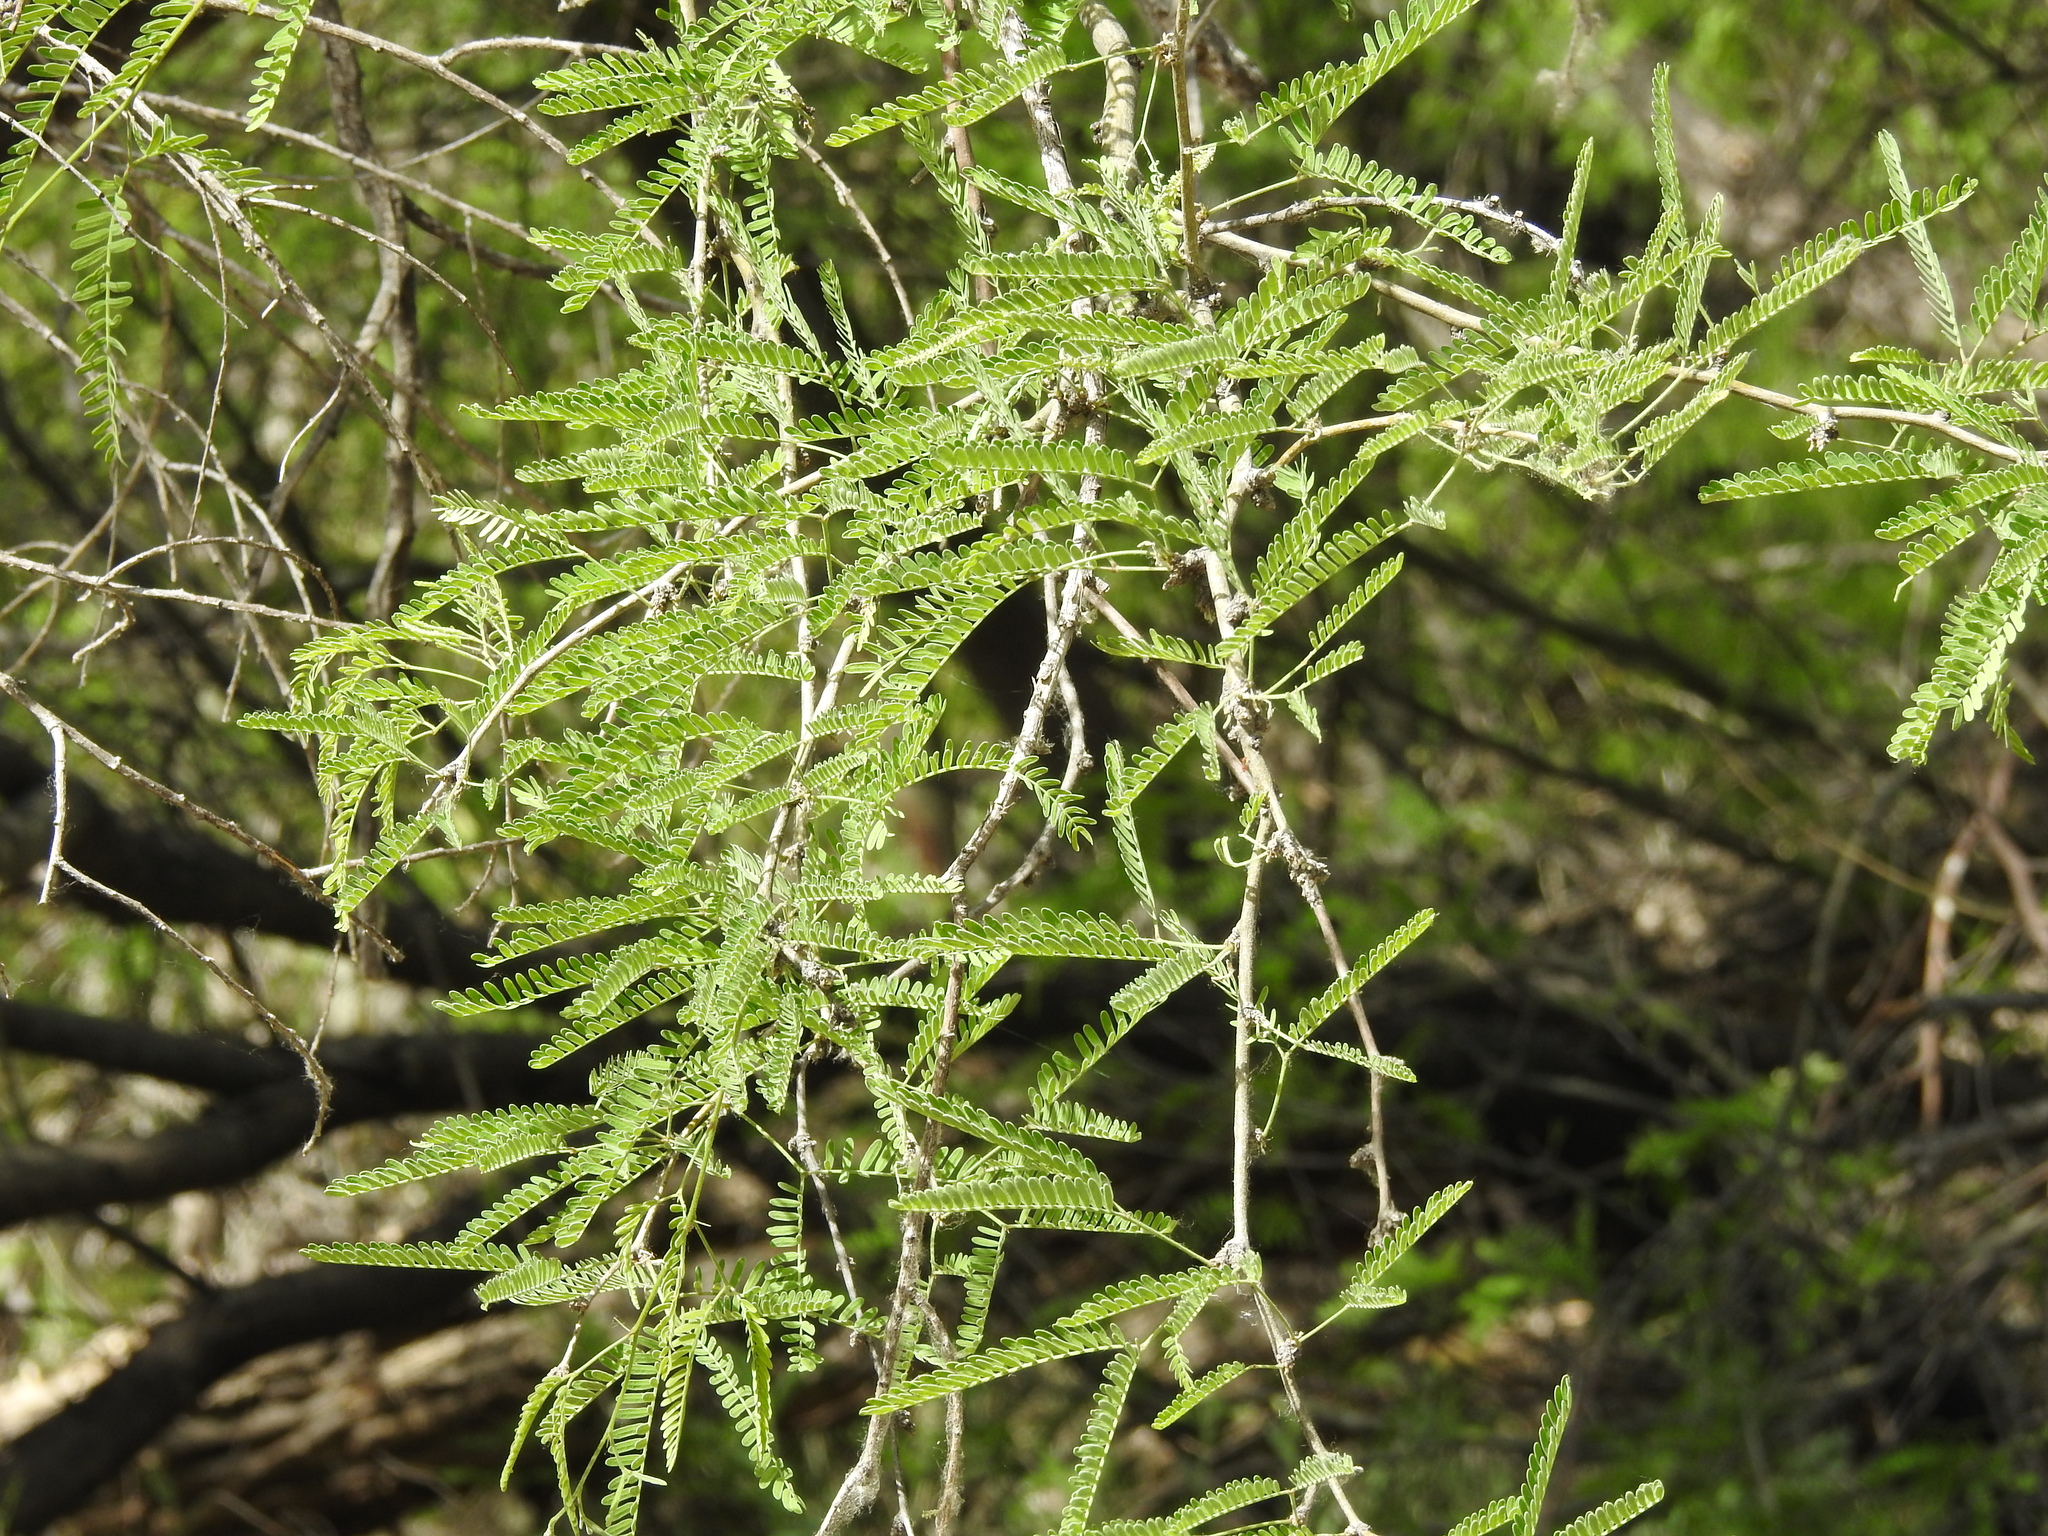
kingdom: Plantae
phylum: Tracheophyta
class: Magnoliopsida
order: Fabales
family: Fabaceae
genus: Prosopis
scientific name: Prosopis velutina
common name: Velvet mesquite
